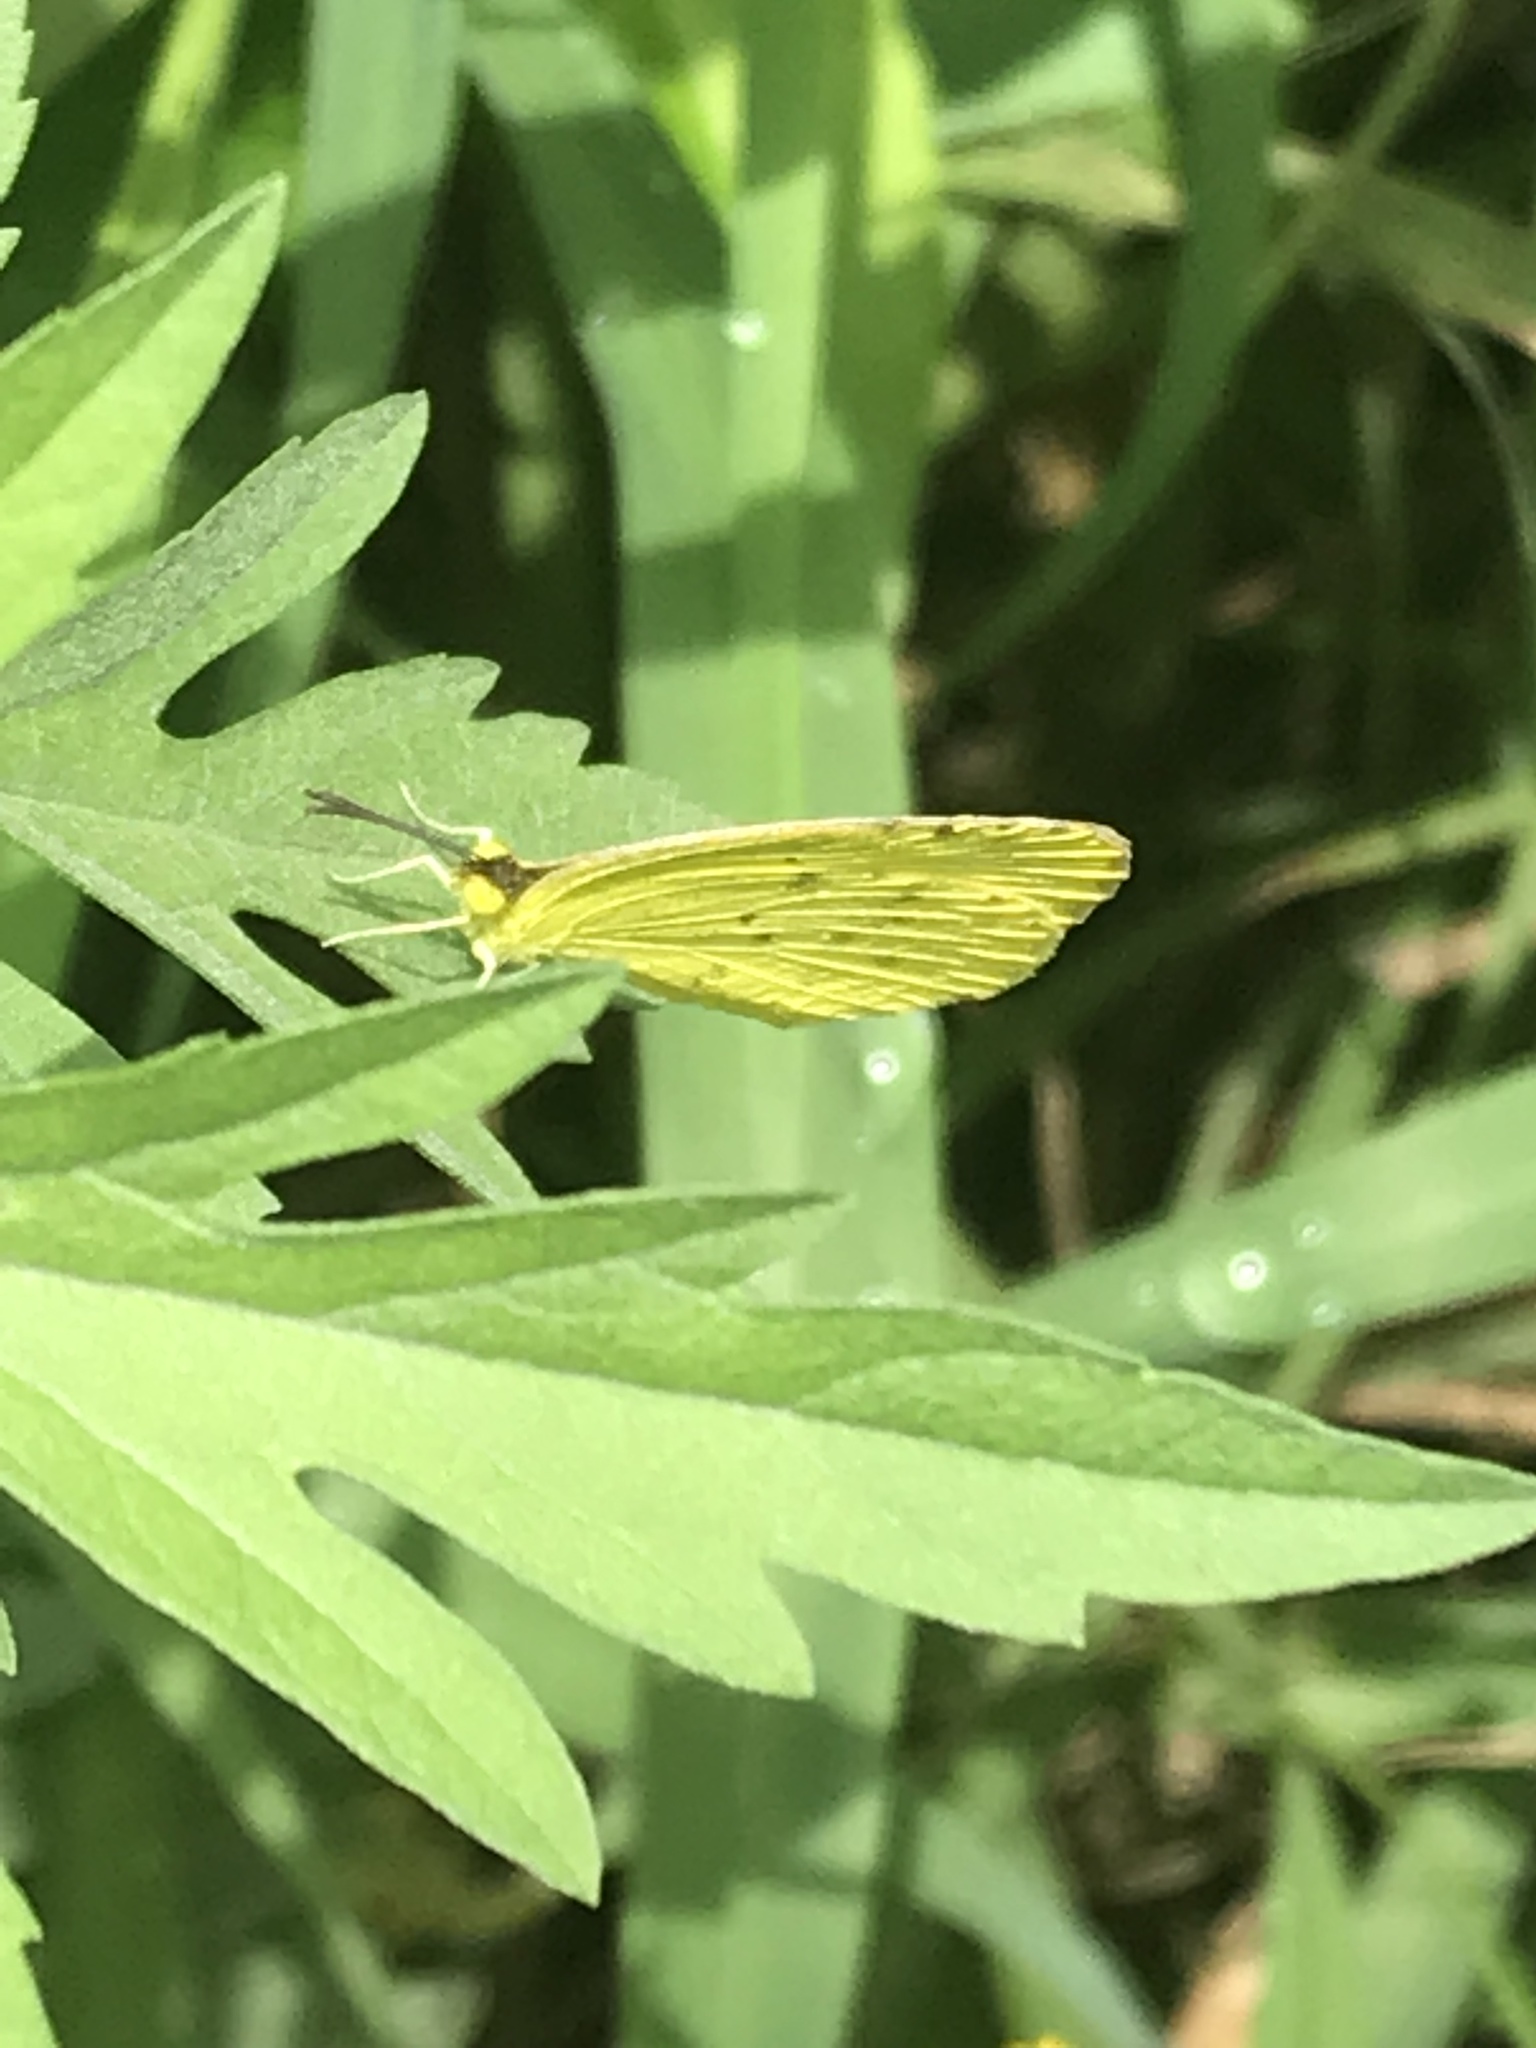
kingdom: Animalia
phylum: Arthropoda
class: Insecta
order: Lepidoptera
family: Pieridae
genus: Pyrisitia
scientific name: Pyrisitia nise
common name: Mimosa yellow
